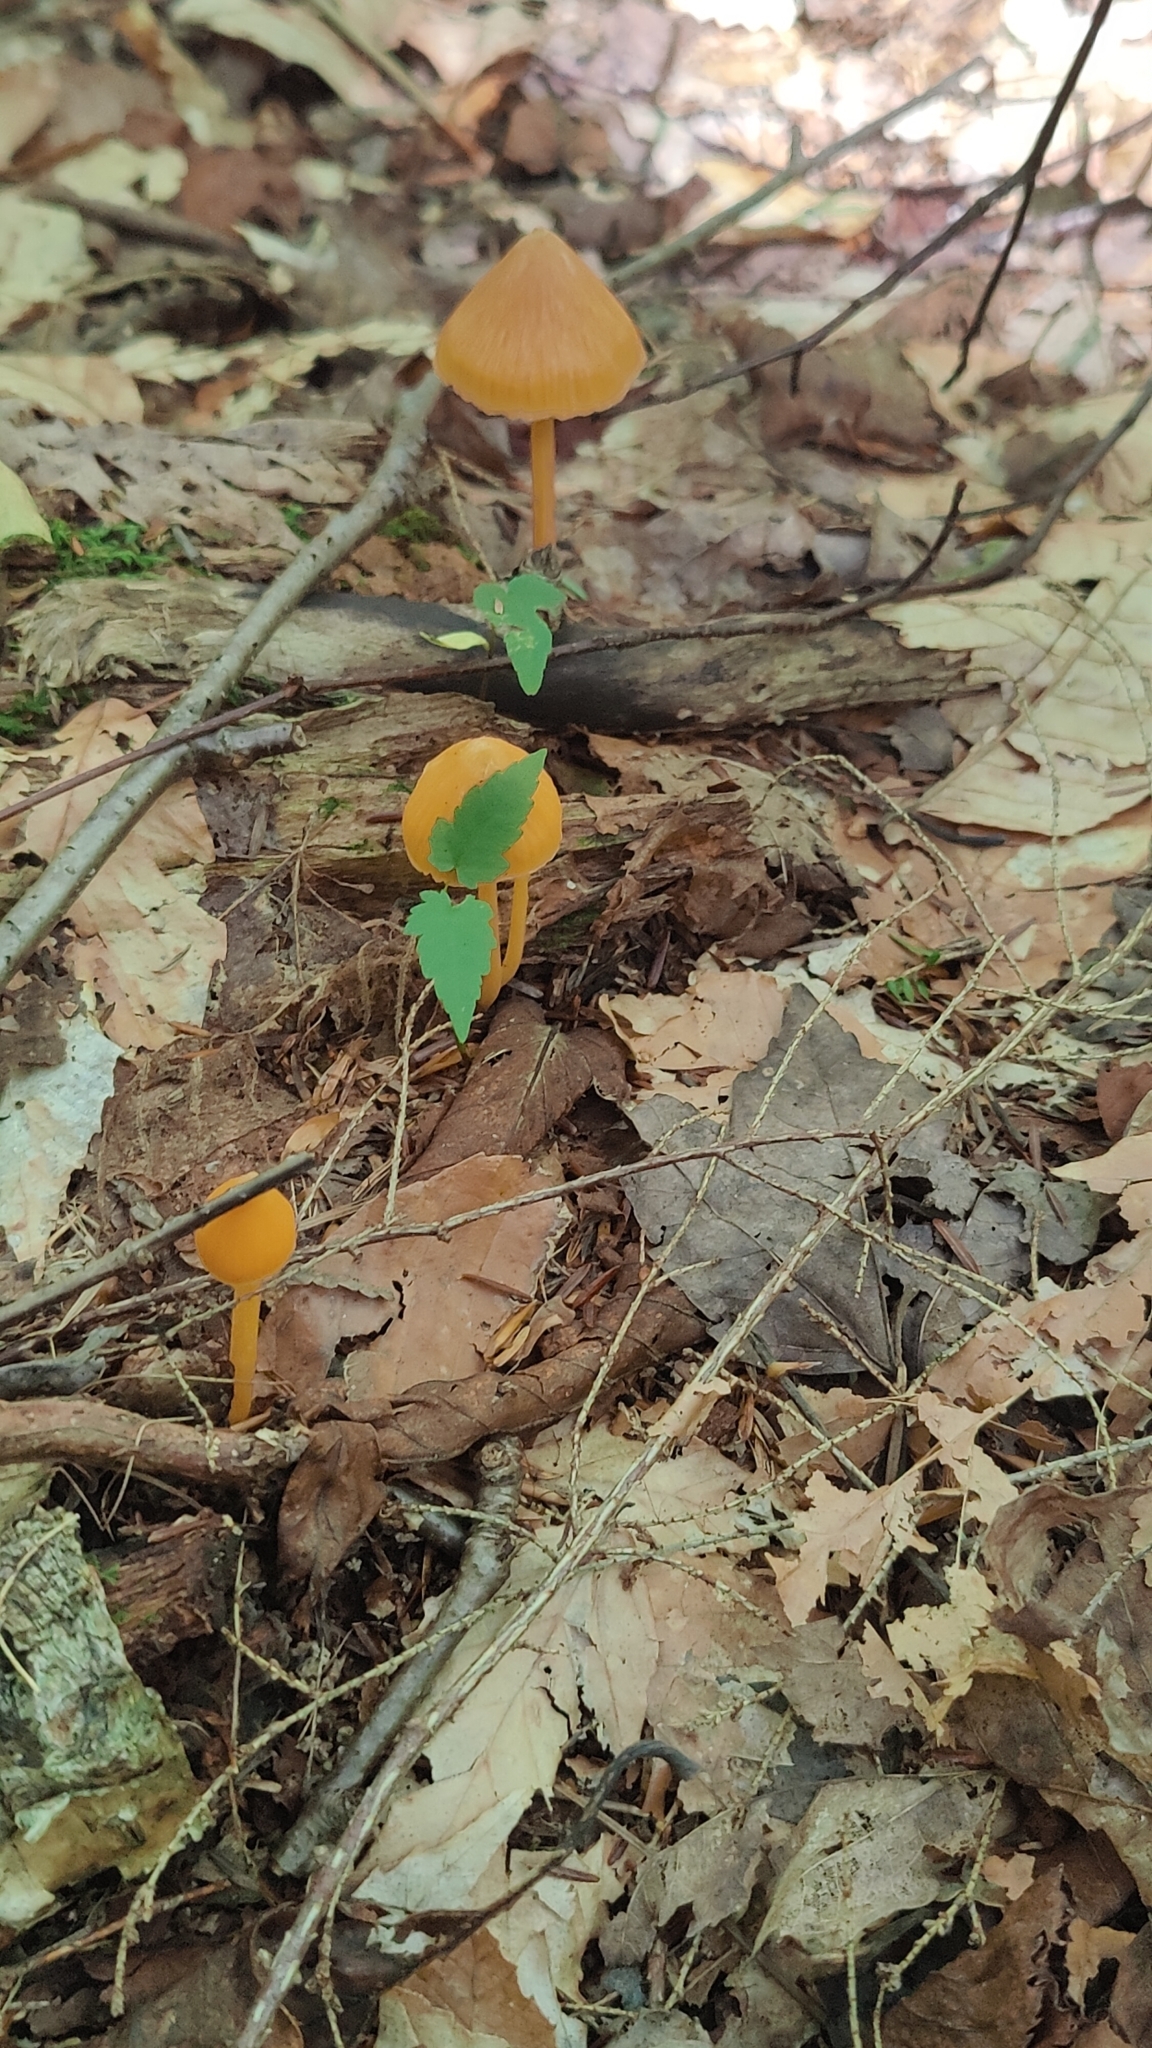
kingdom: Fungi
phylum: Basidiomycota
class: Agaricomycetes
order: Agaricales
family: Entolomataceae
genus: Entoloma
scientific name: Entoloma quadratum
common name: Salmon pinkgill
